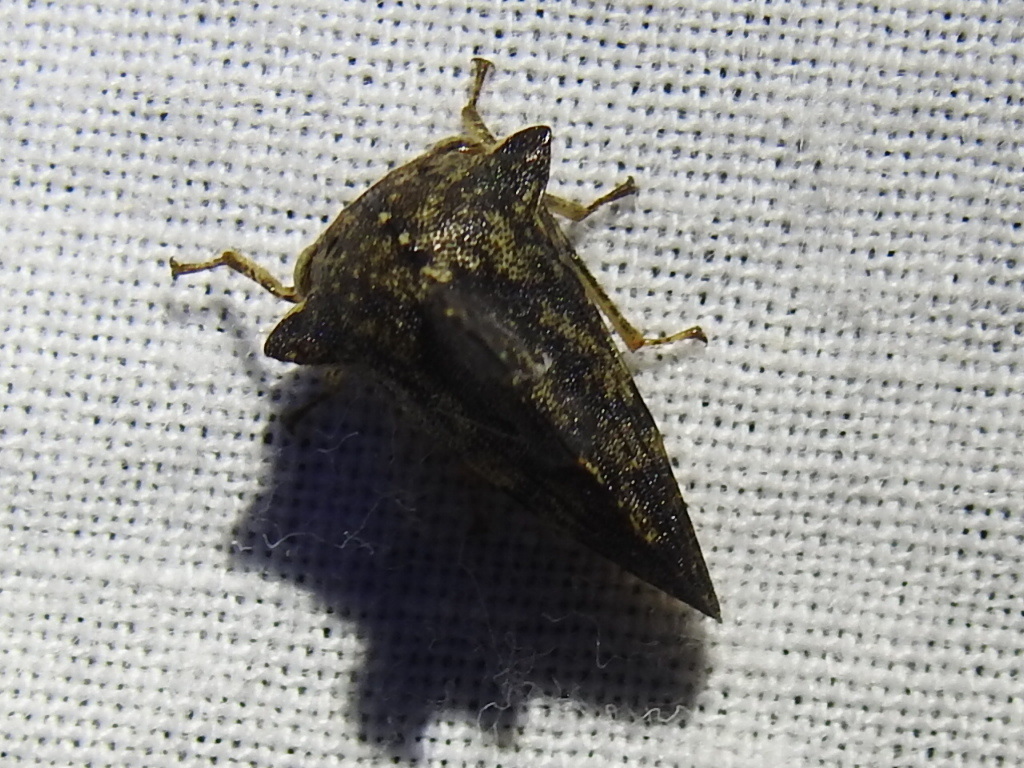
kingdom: Animalia
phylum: Arthropoda
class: Insecta
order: Hemiptera
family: Membracidae
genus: Heliria
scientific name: Heliria cristata
